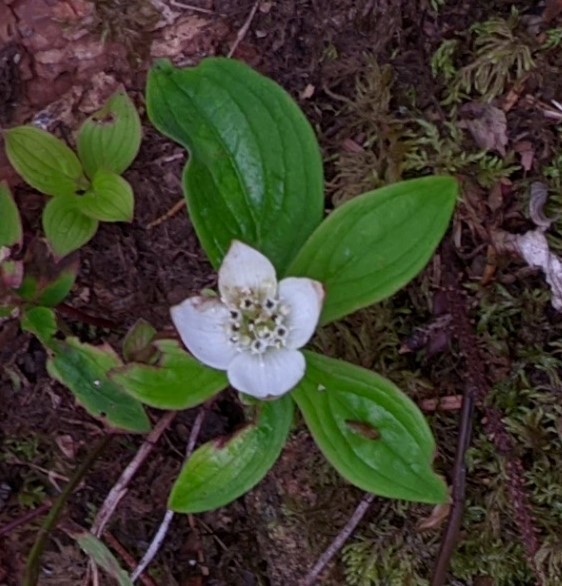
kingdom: Plantae
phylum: Tracheophyta
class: Magnoliopsida
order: Cornales
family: Cornaceae
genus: Cornus
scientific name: Cornus canadensis
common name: Creeping dogwood
